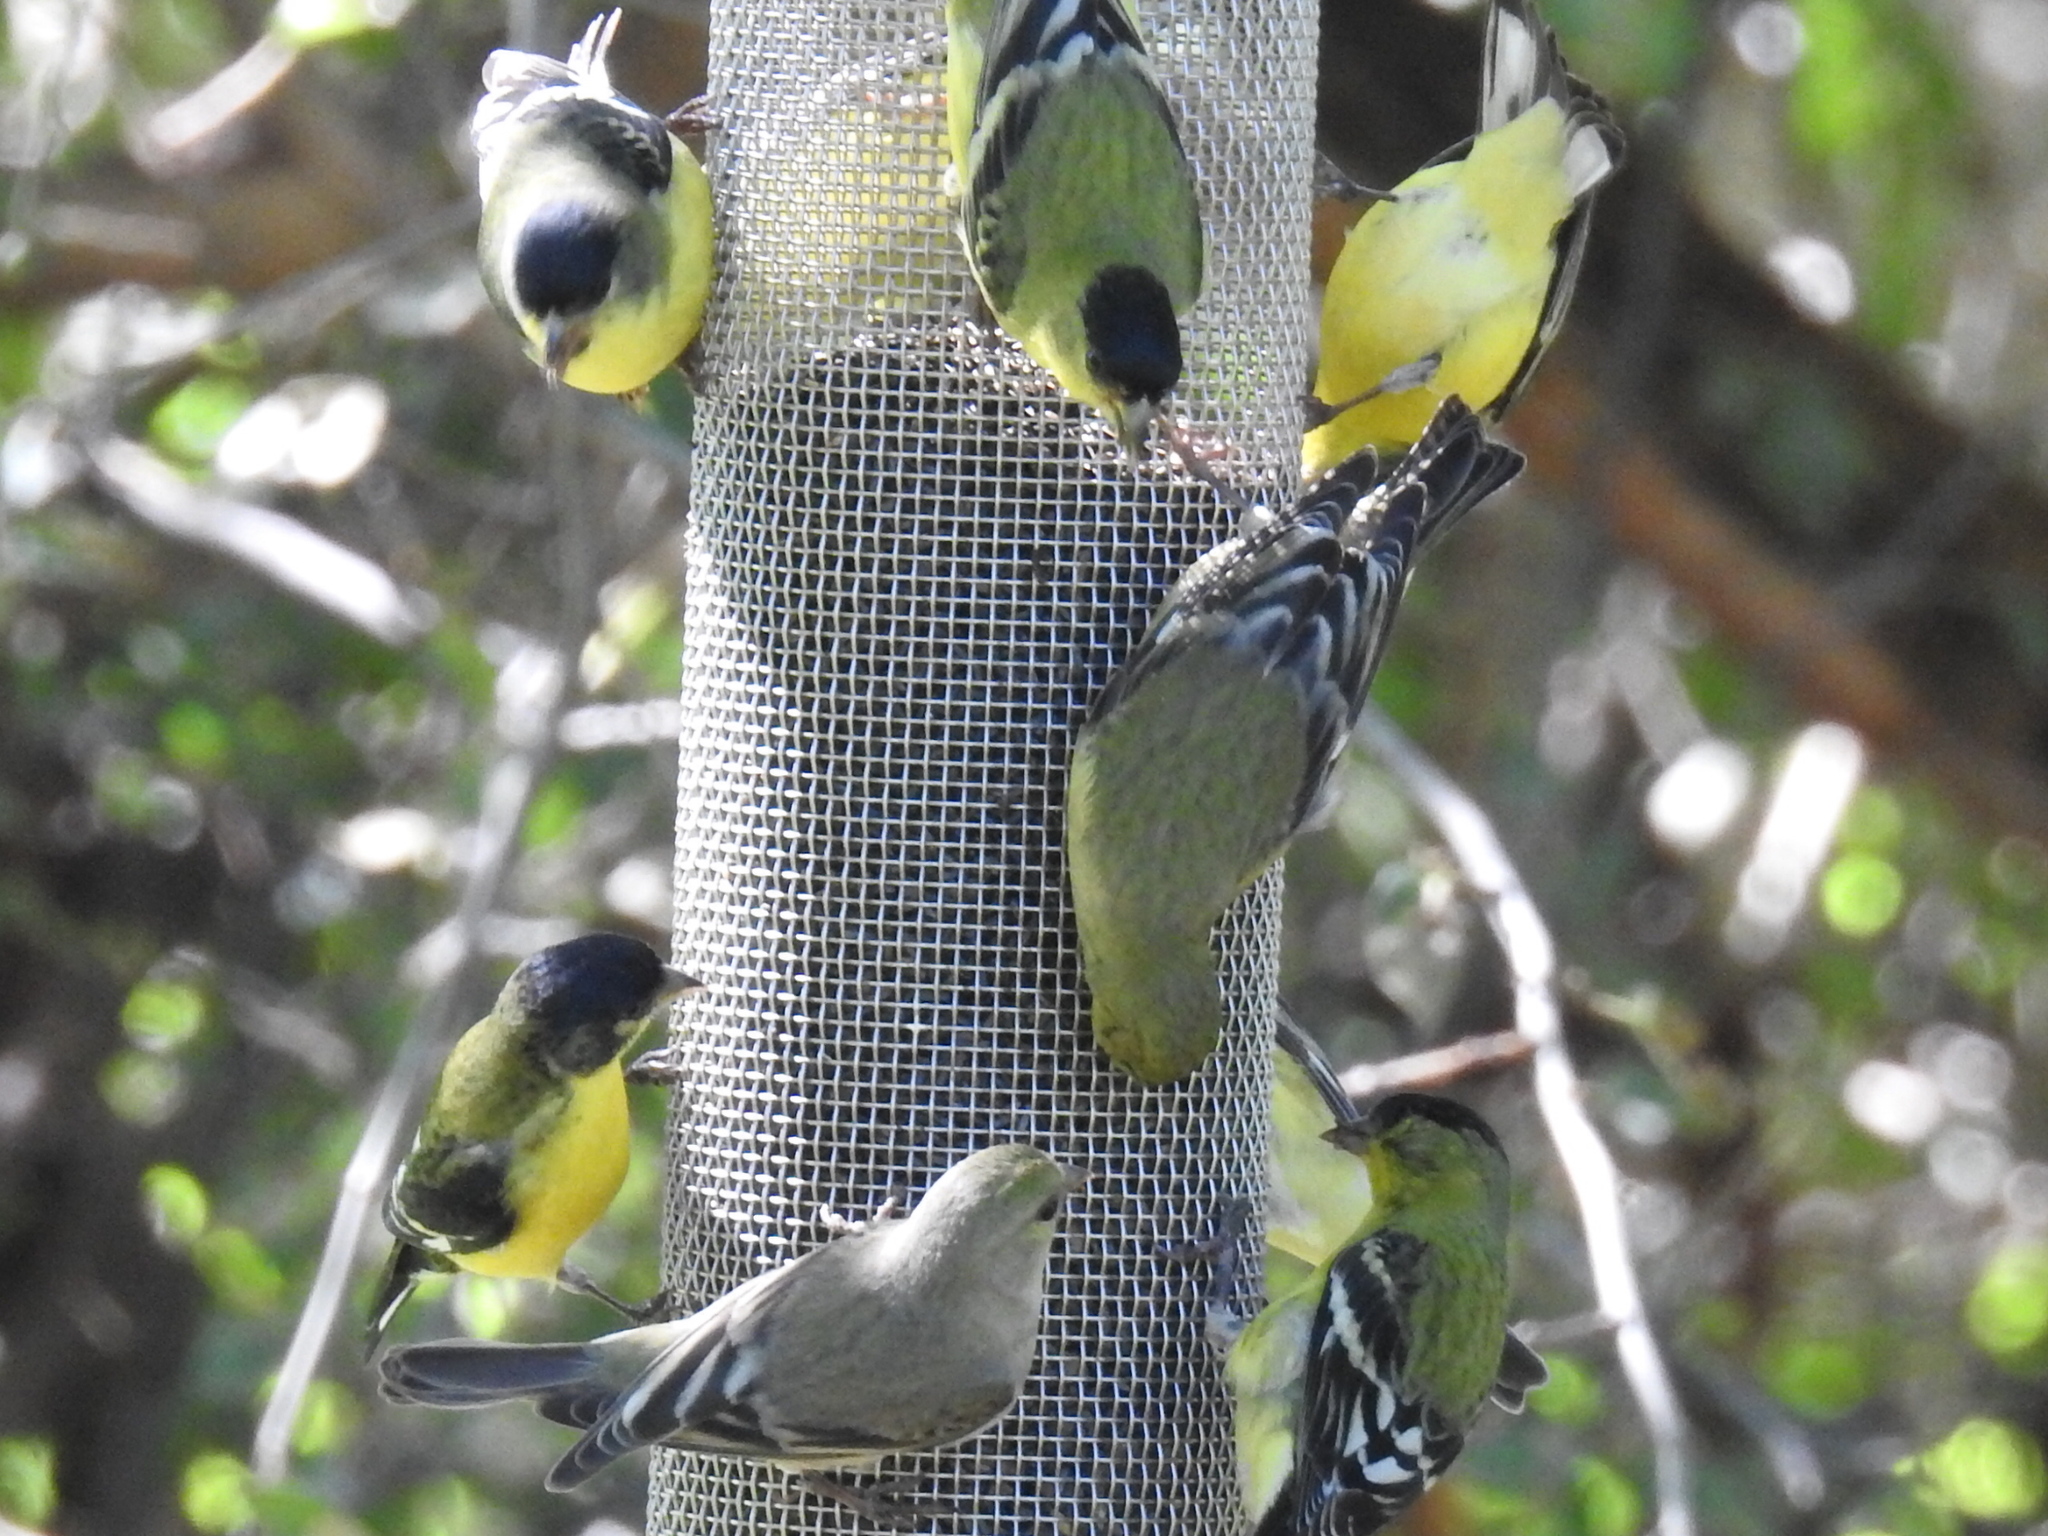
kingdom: Animalia
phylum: Chordata
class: Aves
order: Passeriformes
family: Fringillidae
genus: Spinus
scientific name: Spinus psaltria
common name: Lesser goldfinch
